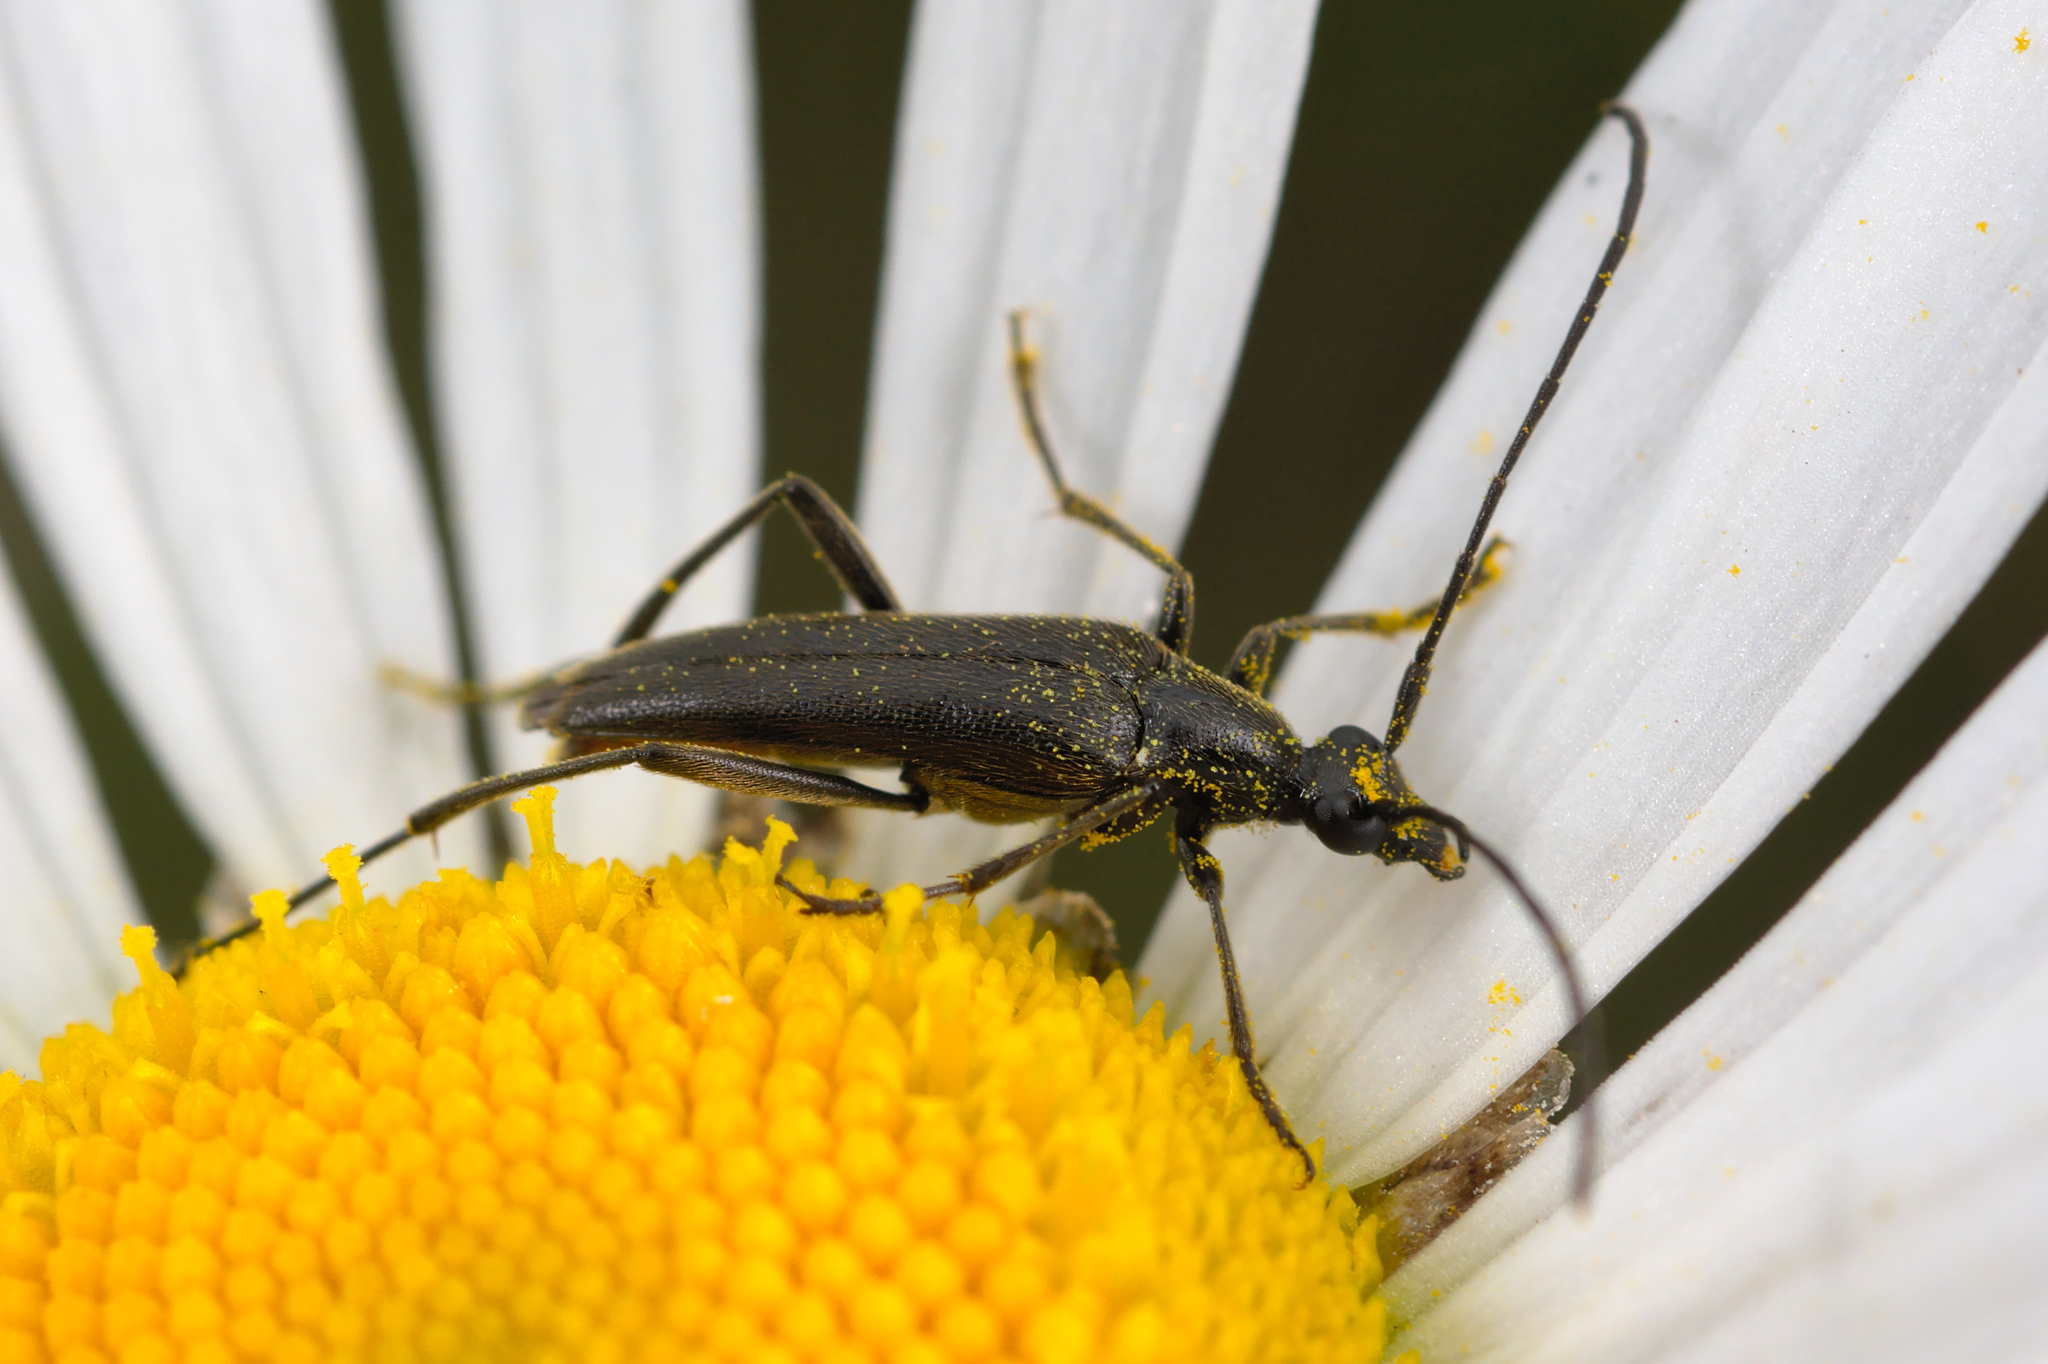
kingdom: Animalia
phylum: Arthropoda
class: Insecta
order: Coleoptera
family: Cerambycidae
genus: Stenurella
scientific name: Stenurella nigra
